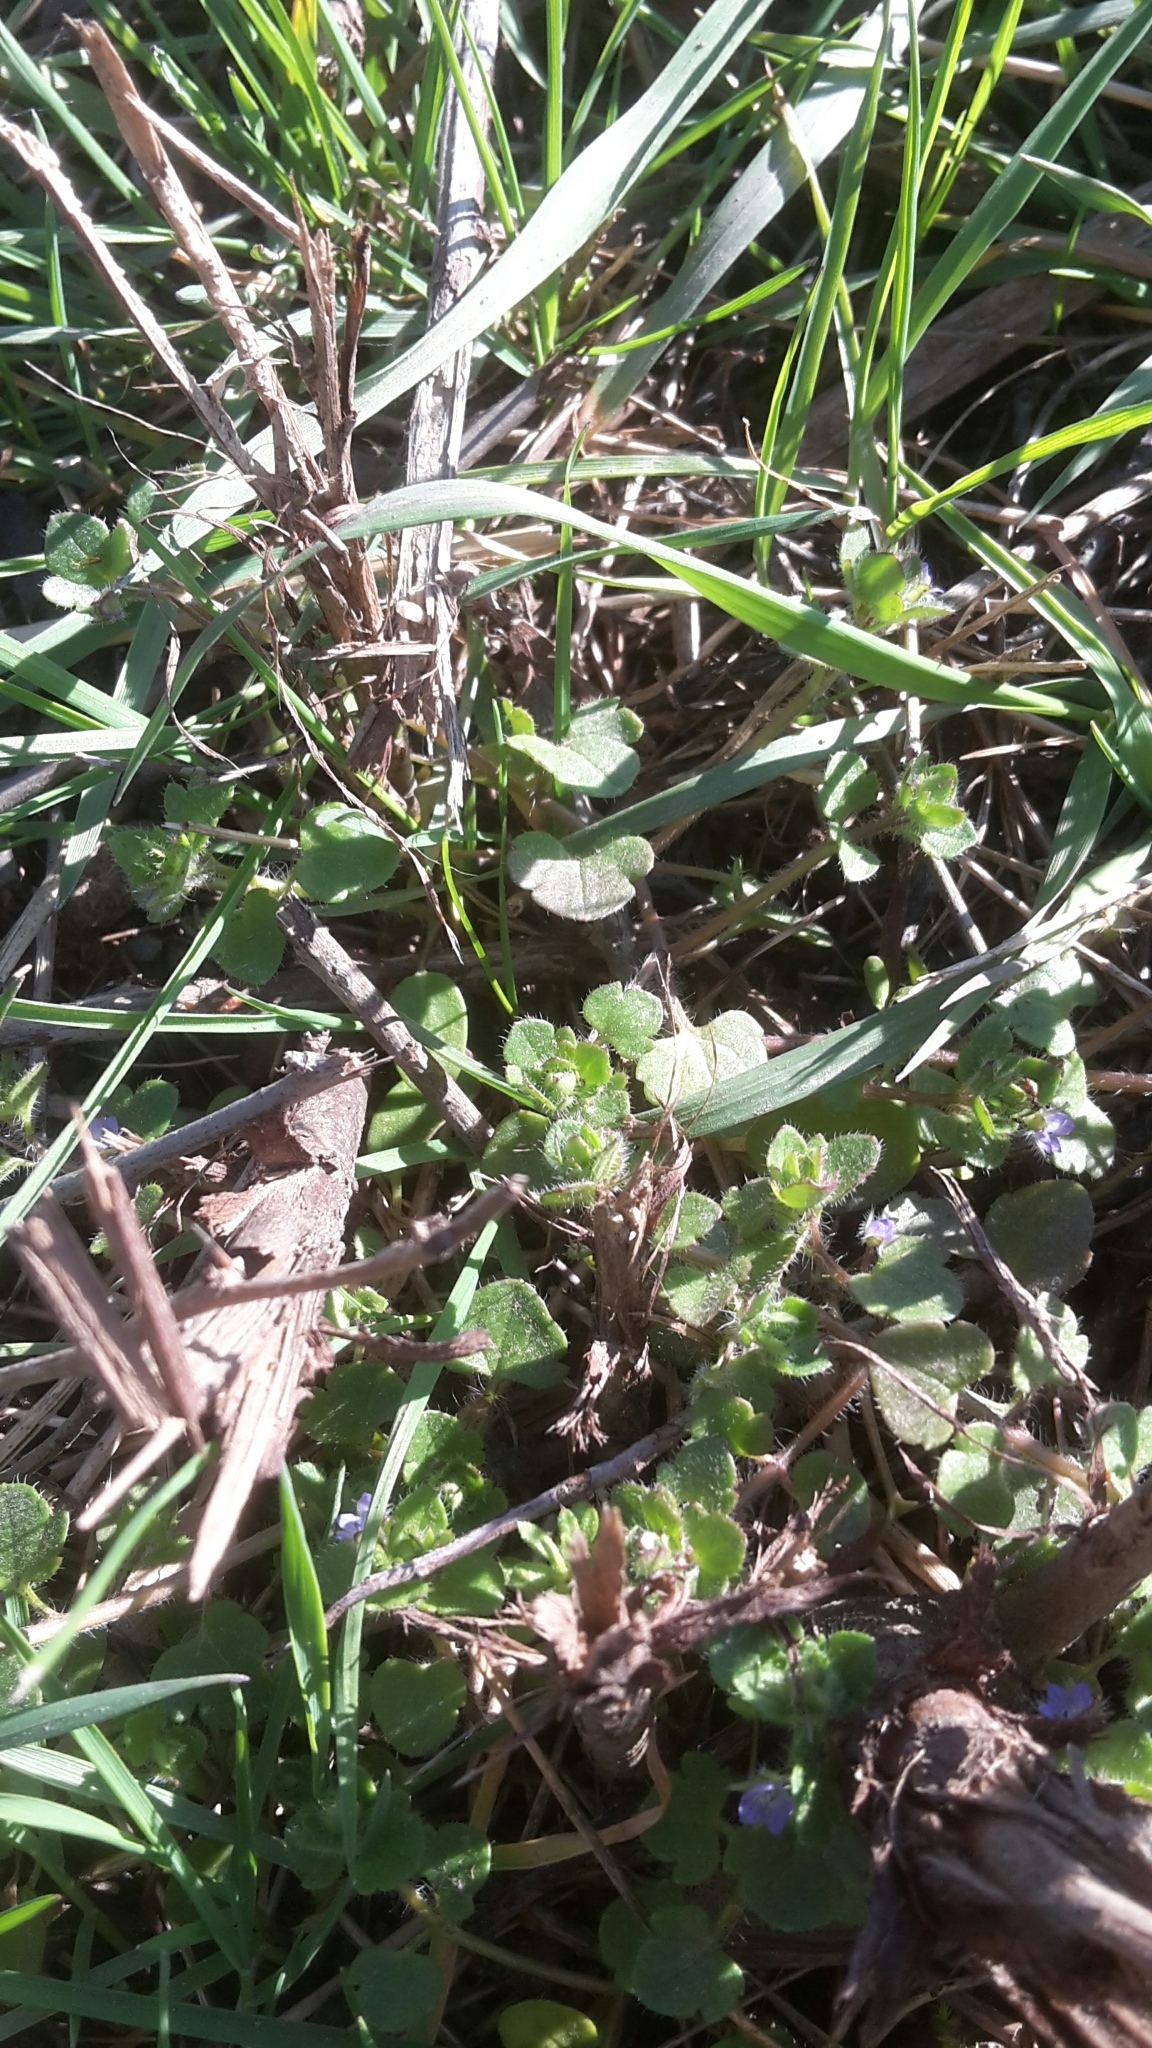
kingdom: Plantae
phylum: Tracheophyta
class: Magnoliopsida
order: Lamiales
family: Plantaginaceae
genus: Veronica
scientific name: Veronica hederifolia
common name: Ivy-leaved speedwell
